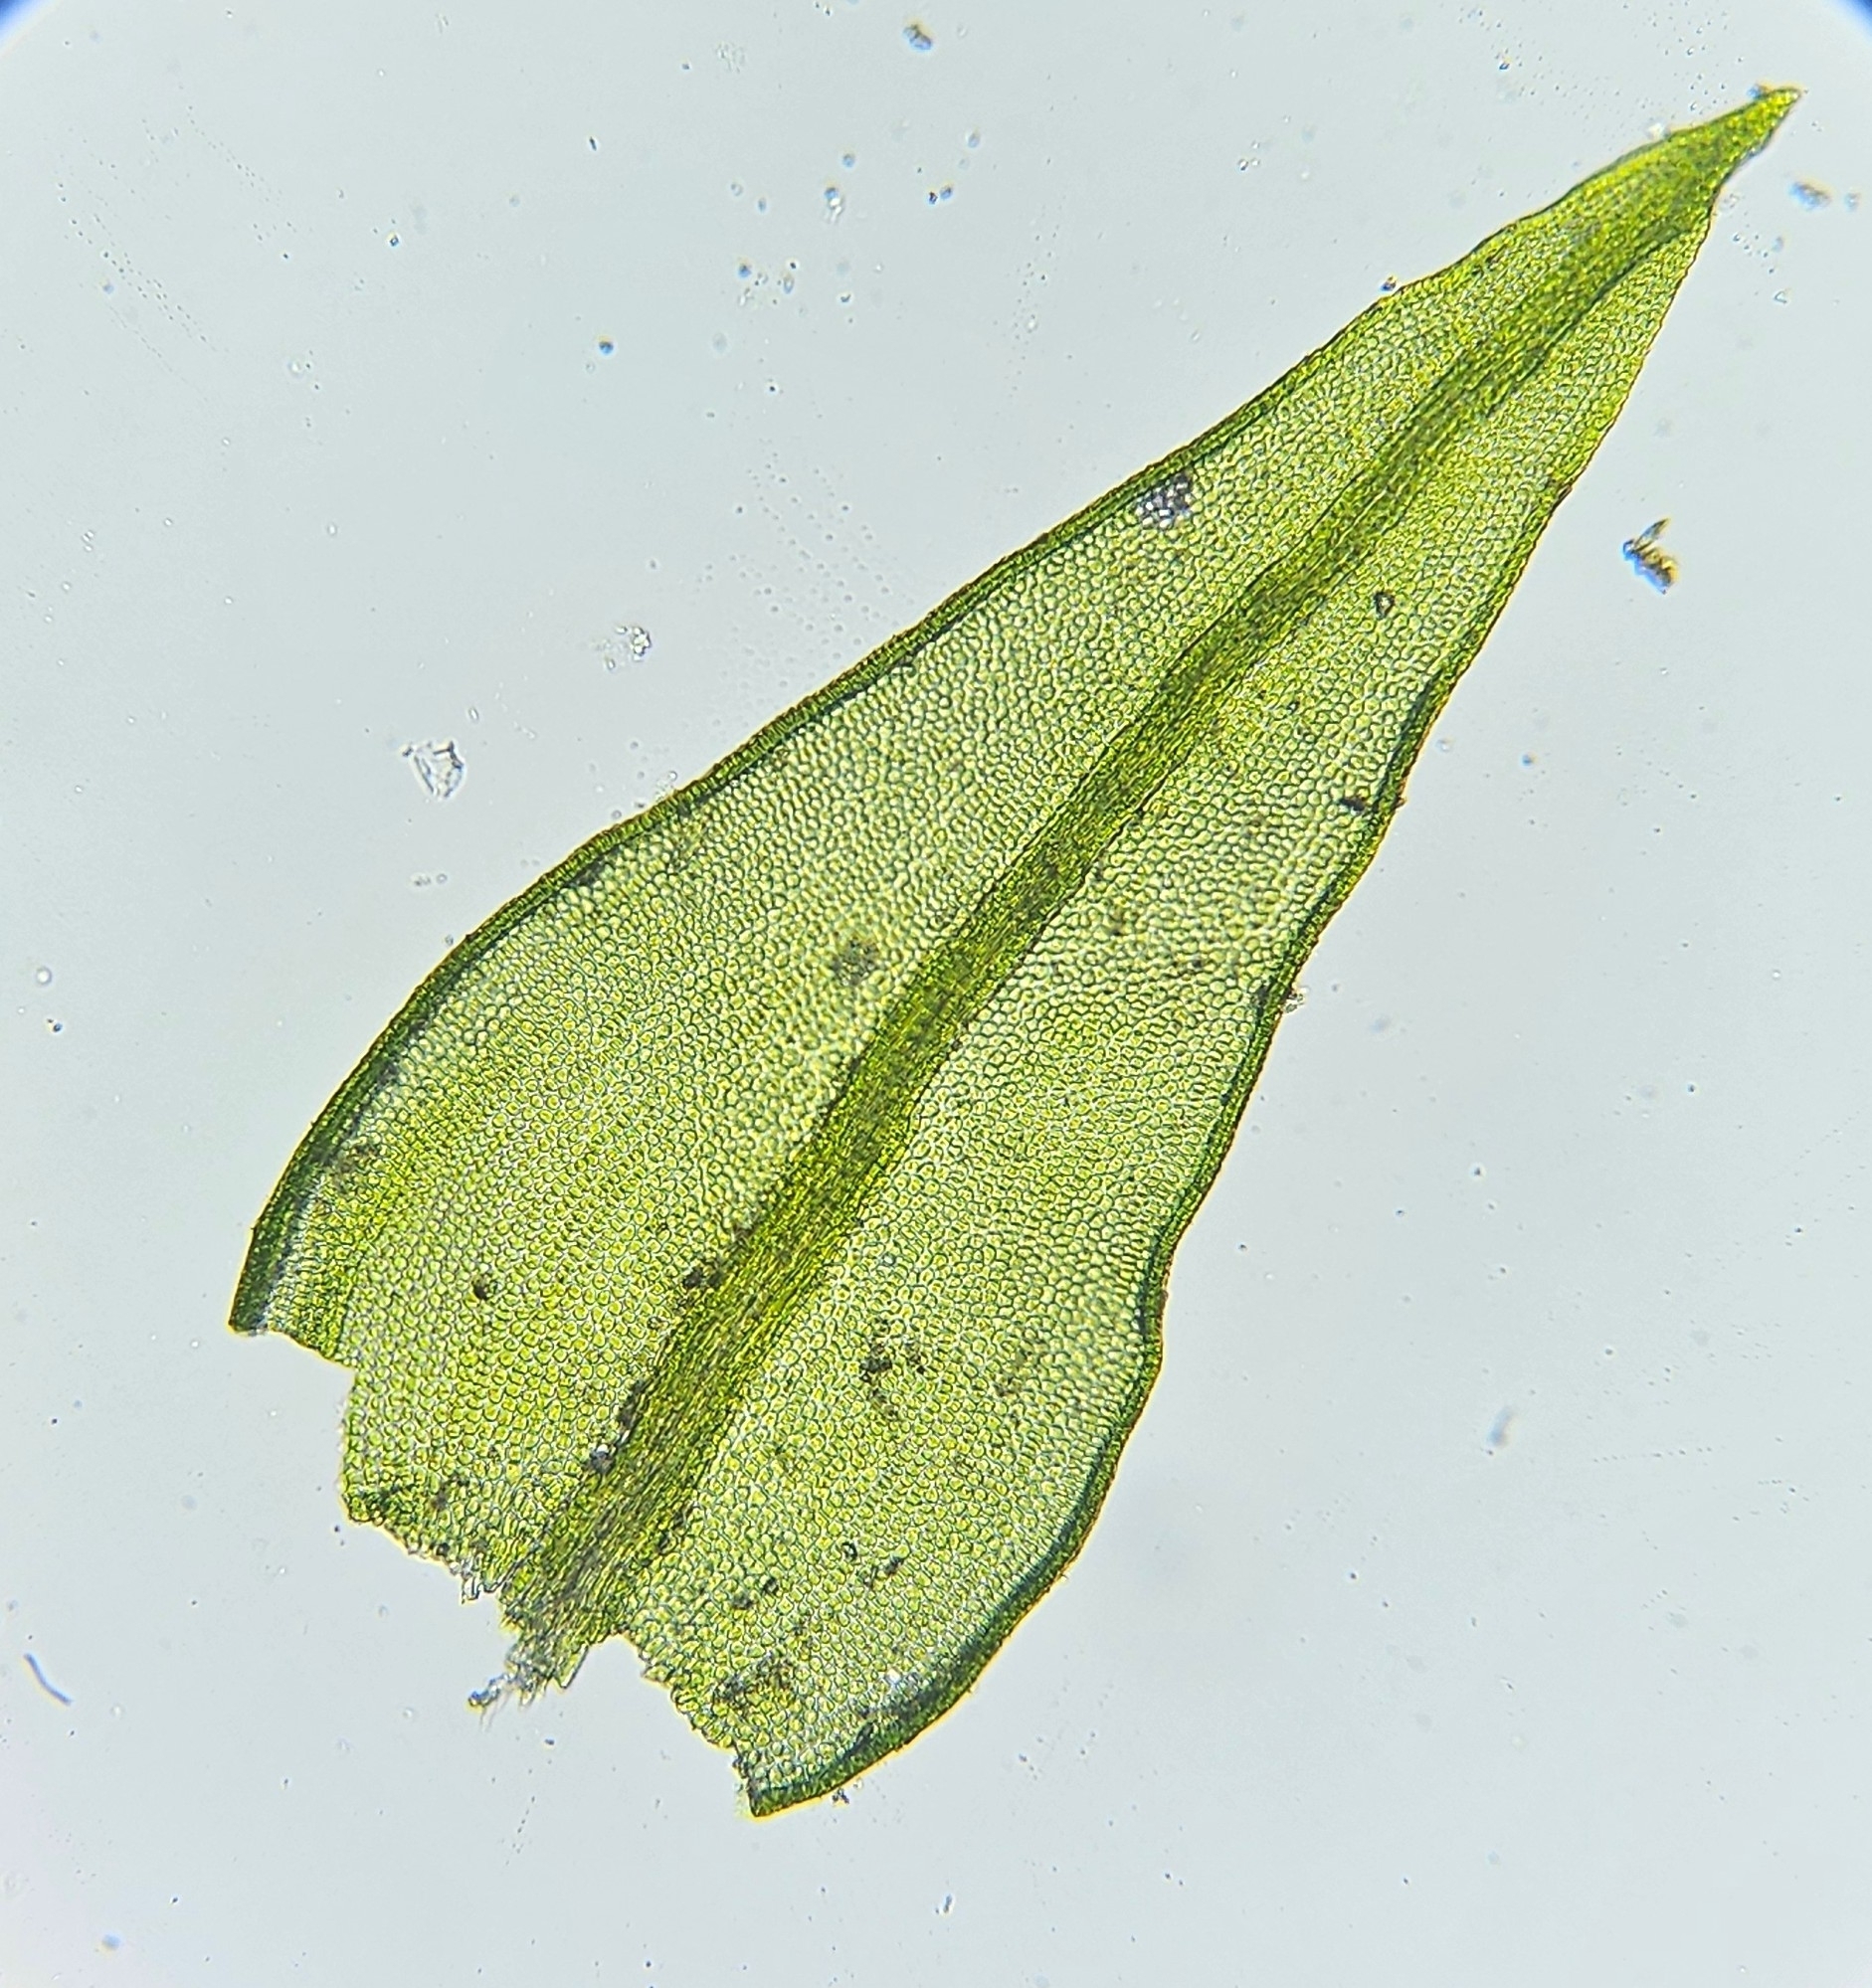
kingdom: Plantae
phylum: Bryophyta
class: Bryopsida
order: Pottiales
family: Pottiaceae
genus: Geheebia
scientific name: Geheebia lurida
